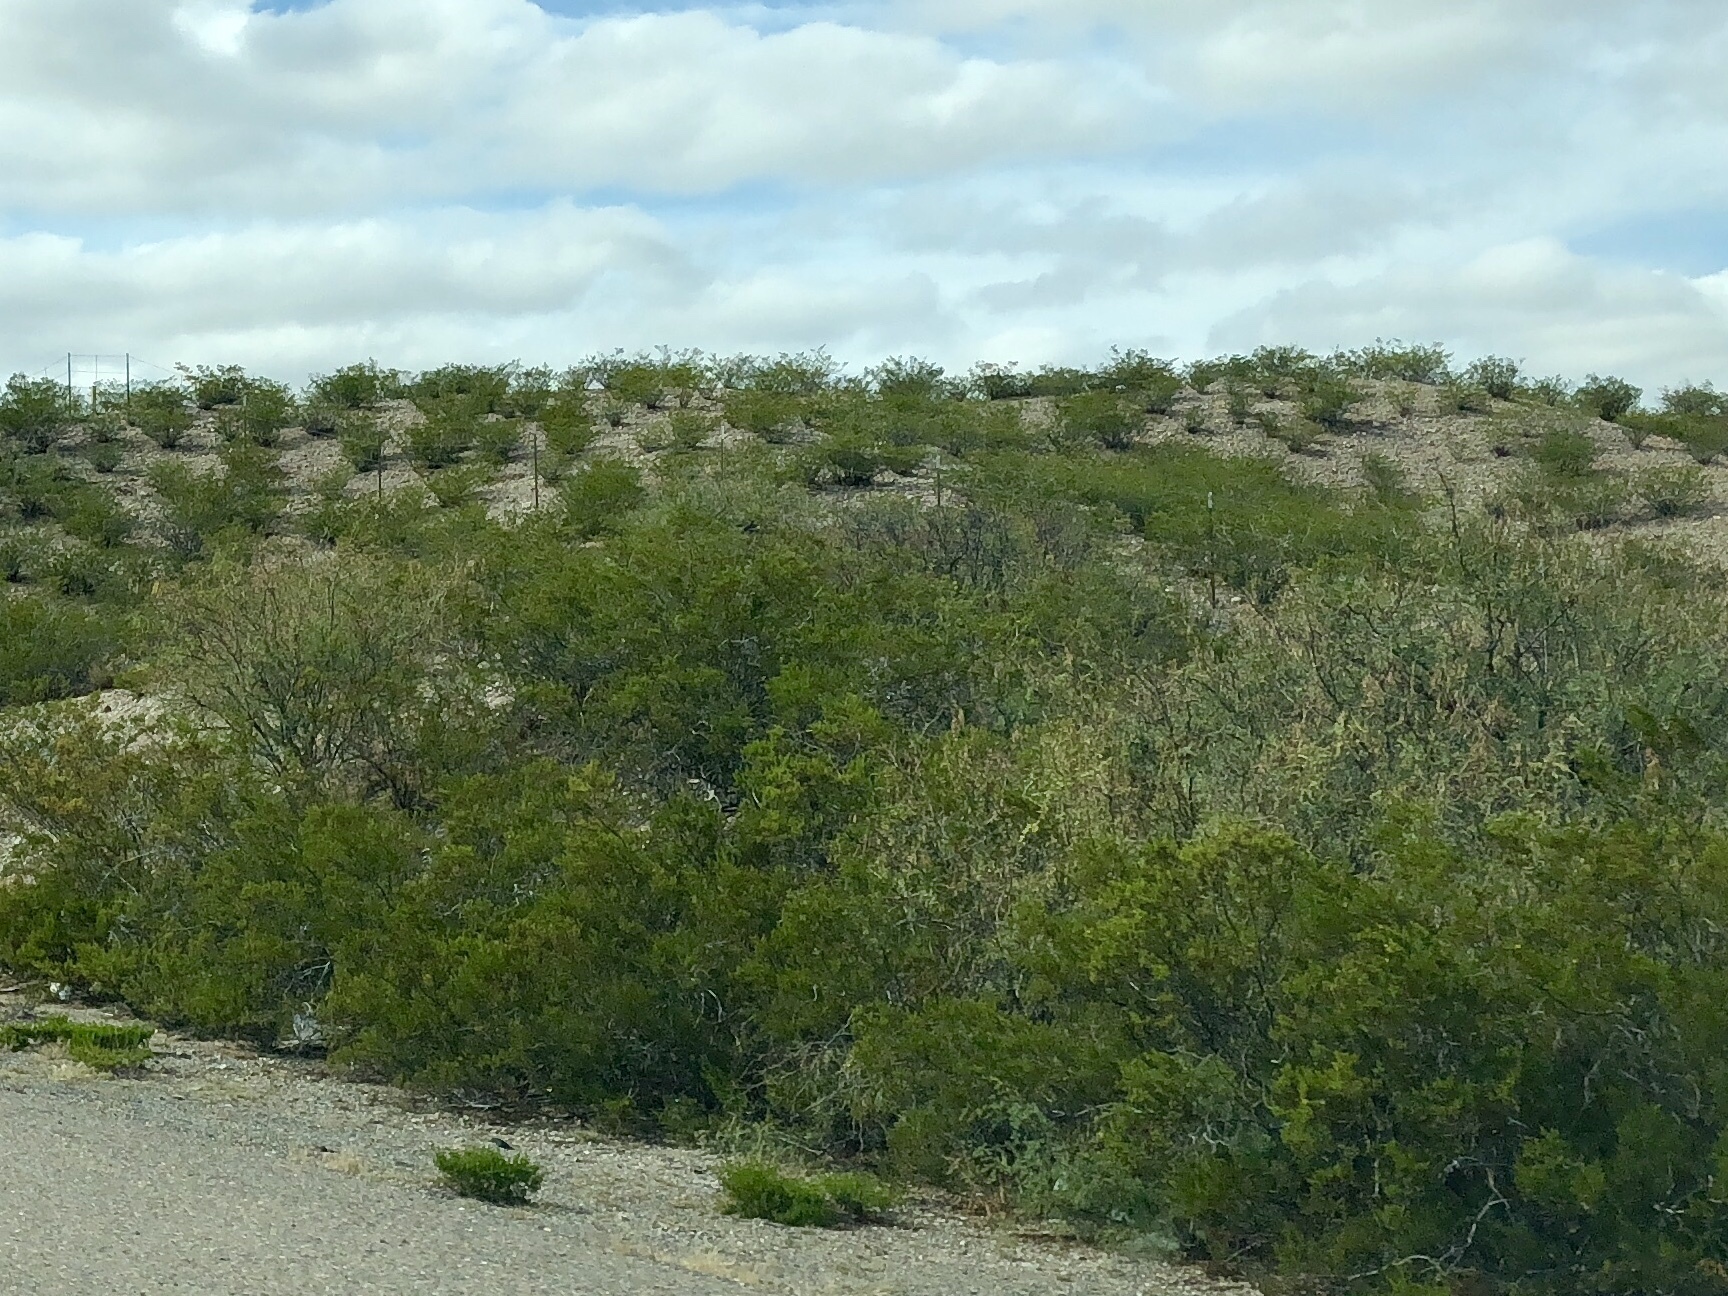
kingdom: Plantae
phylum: Tracheophyta
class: Magnoliopsida
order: Zygophyllales
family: Zygophyllaceae
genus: Larrea
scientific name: Larrea tridentata
